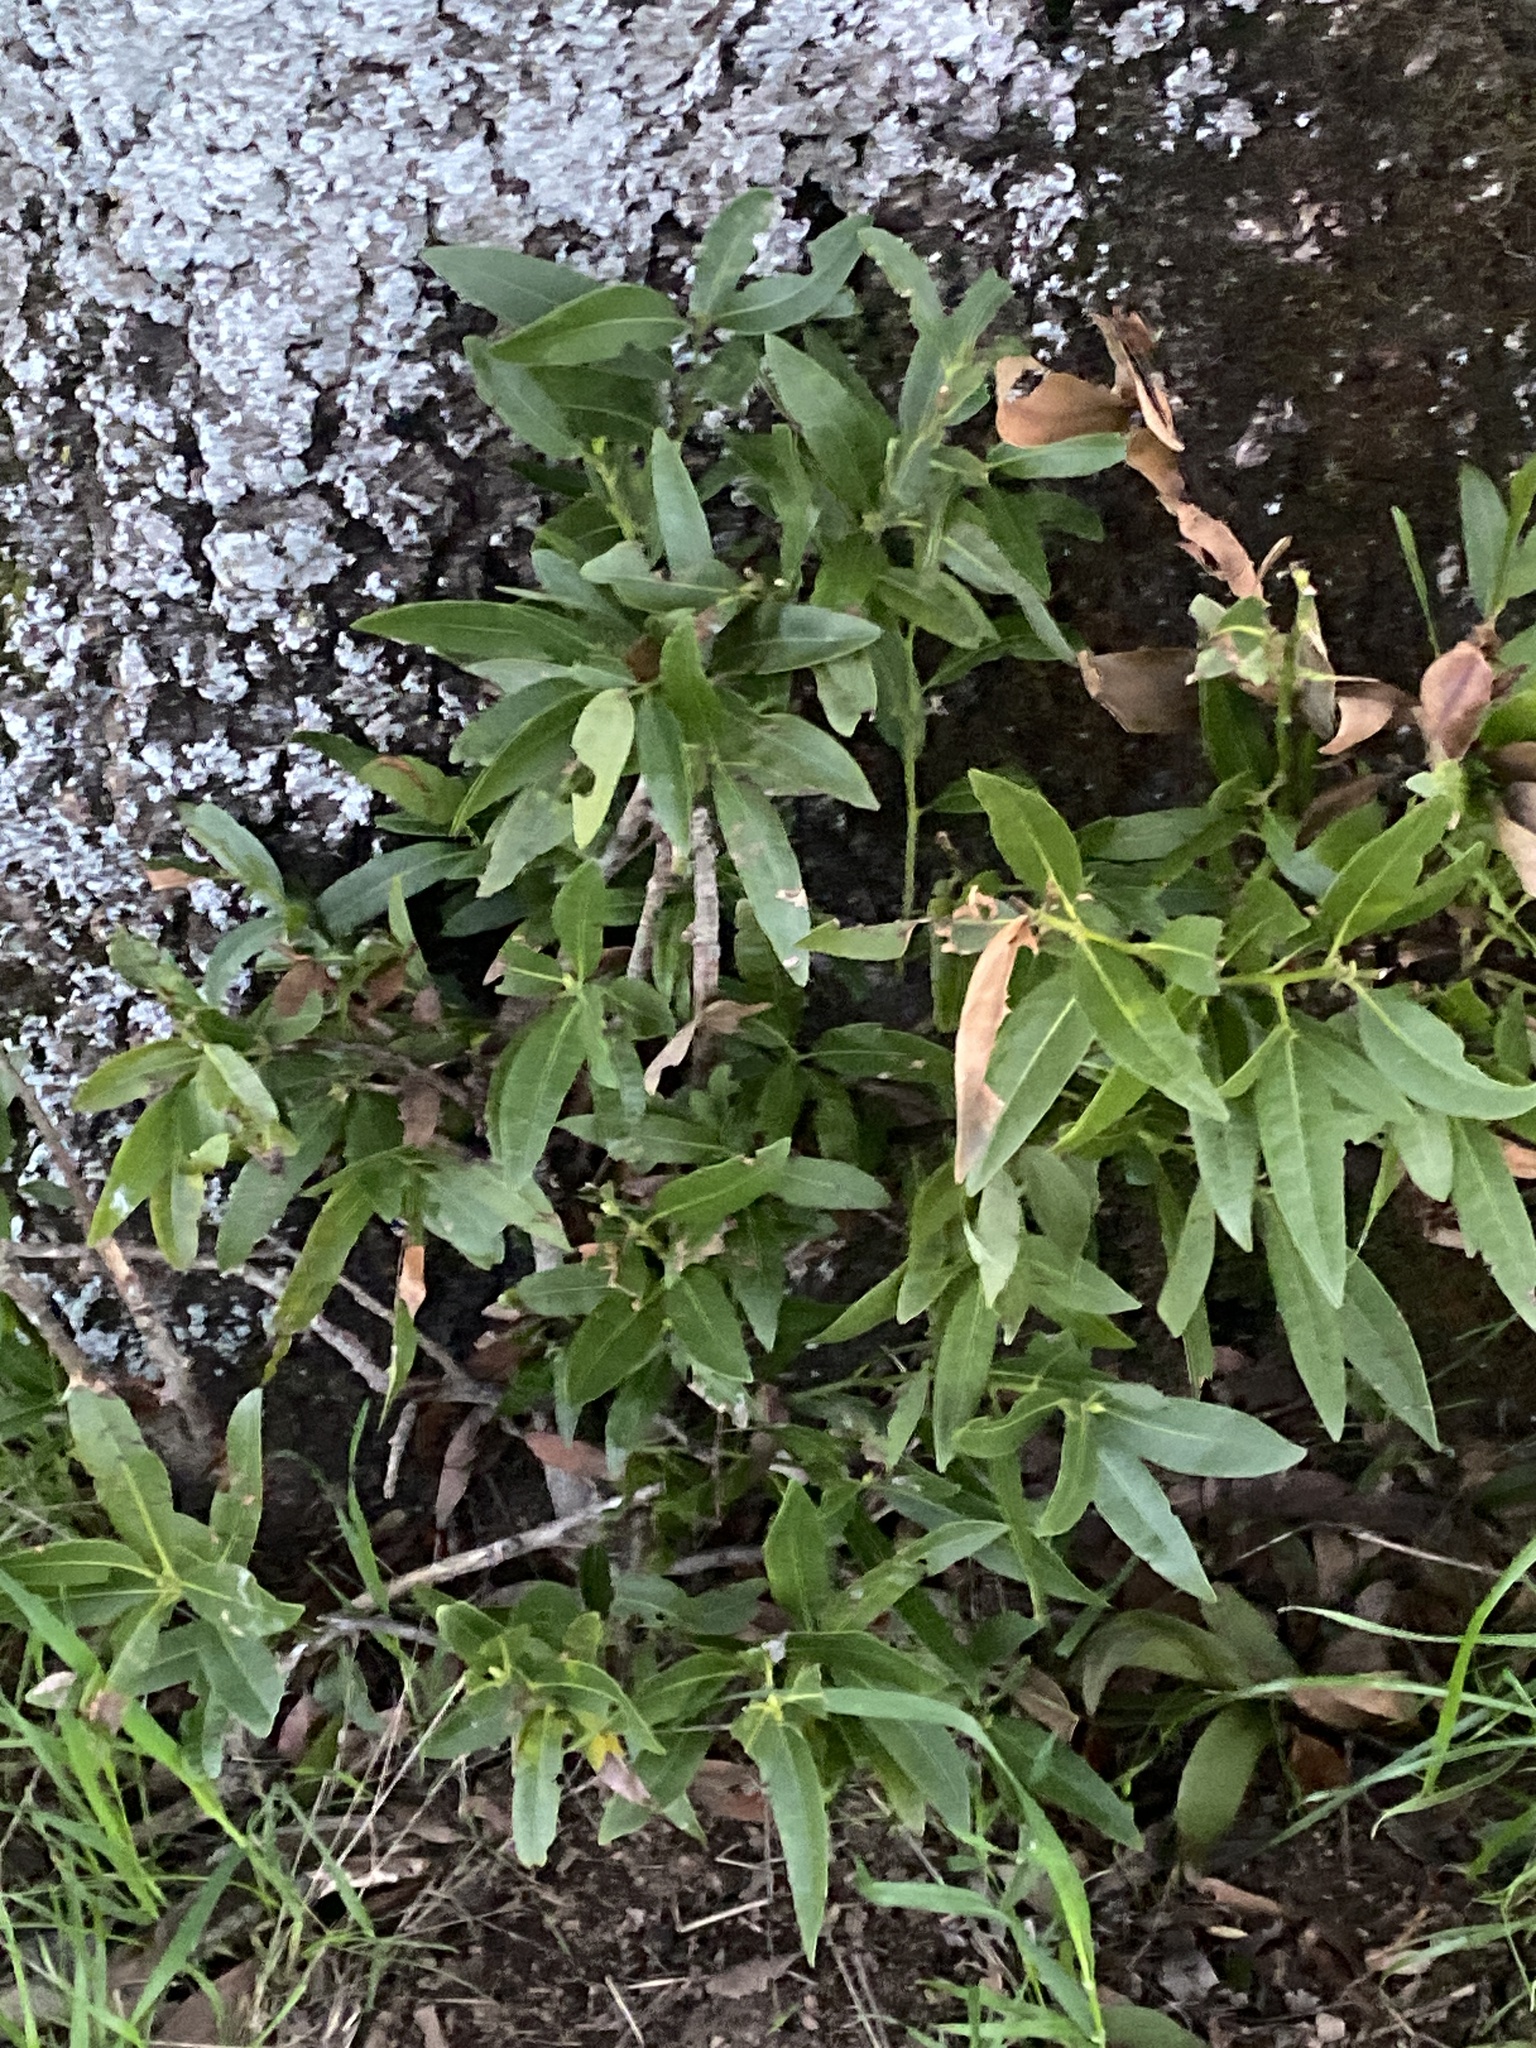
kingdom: Plantae
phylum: Tracheophyta
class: Magnoliopsida
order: Laurales
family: Lauraceae
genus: Umbellularia
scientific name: Umbellularia californica
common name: California bay
